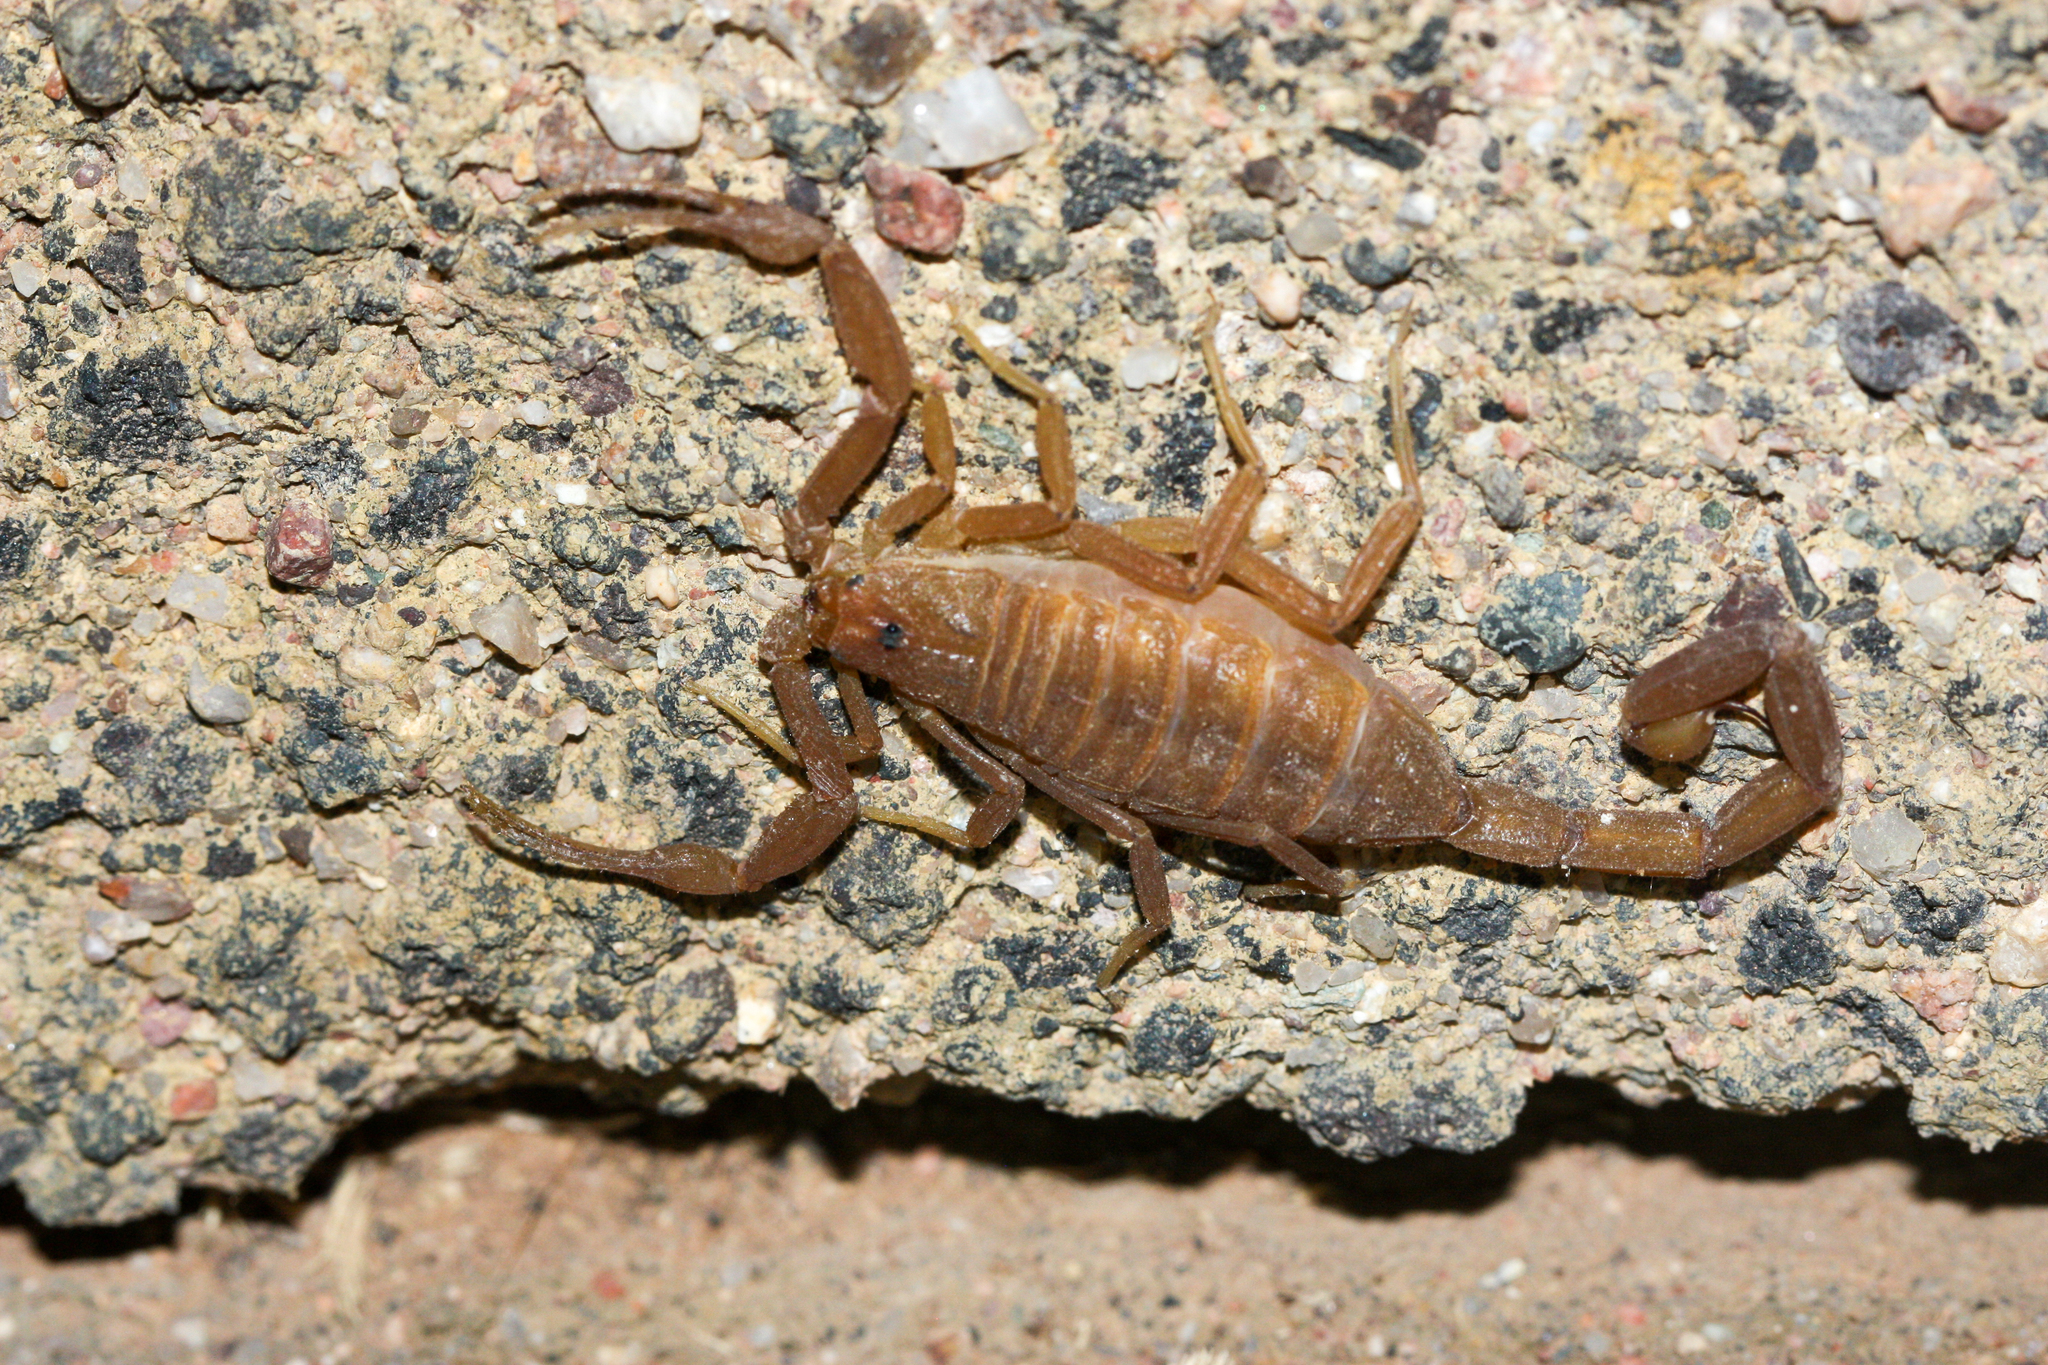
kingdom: Animalia
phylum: Arthropoda
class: Arachnida
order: Scorpiones
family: Buthidae
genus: Centruroides
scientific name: Centruroides sculpturatus
